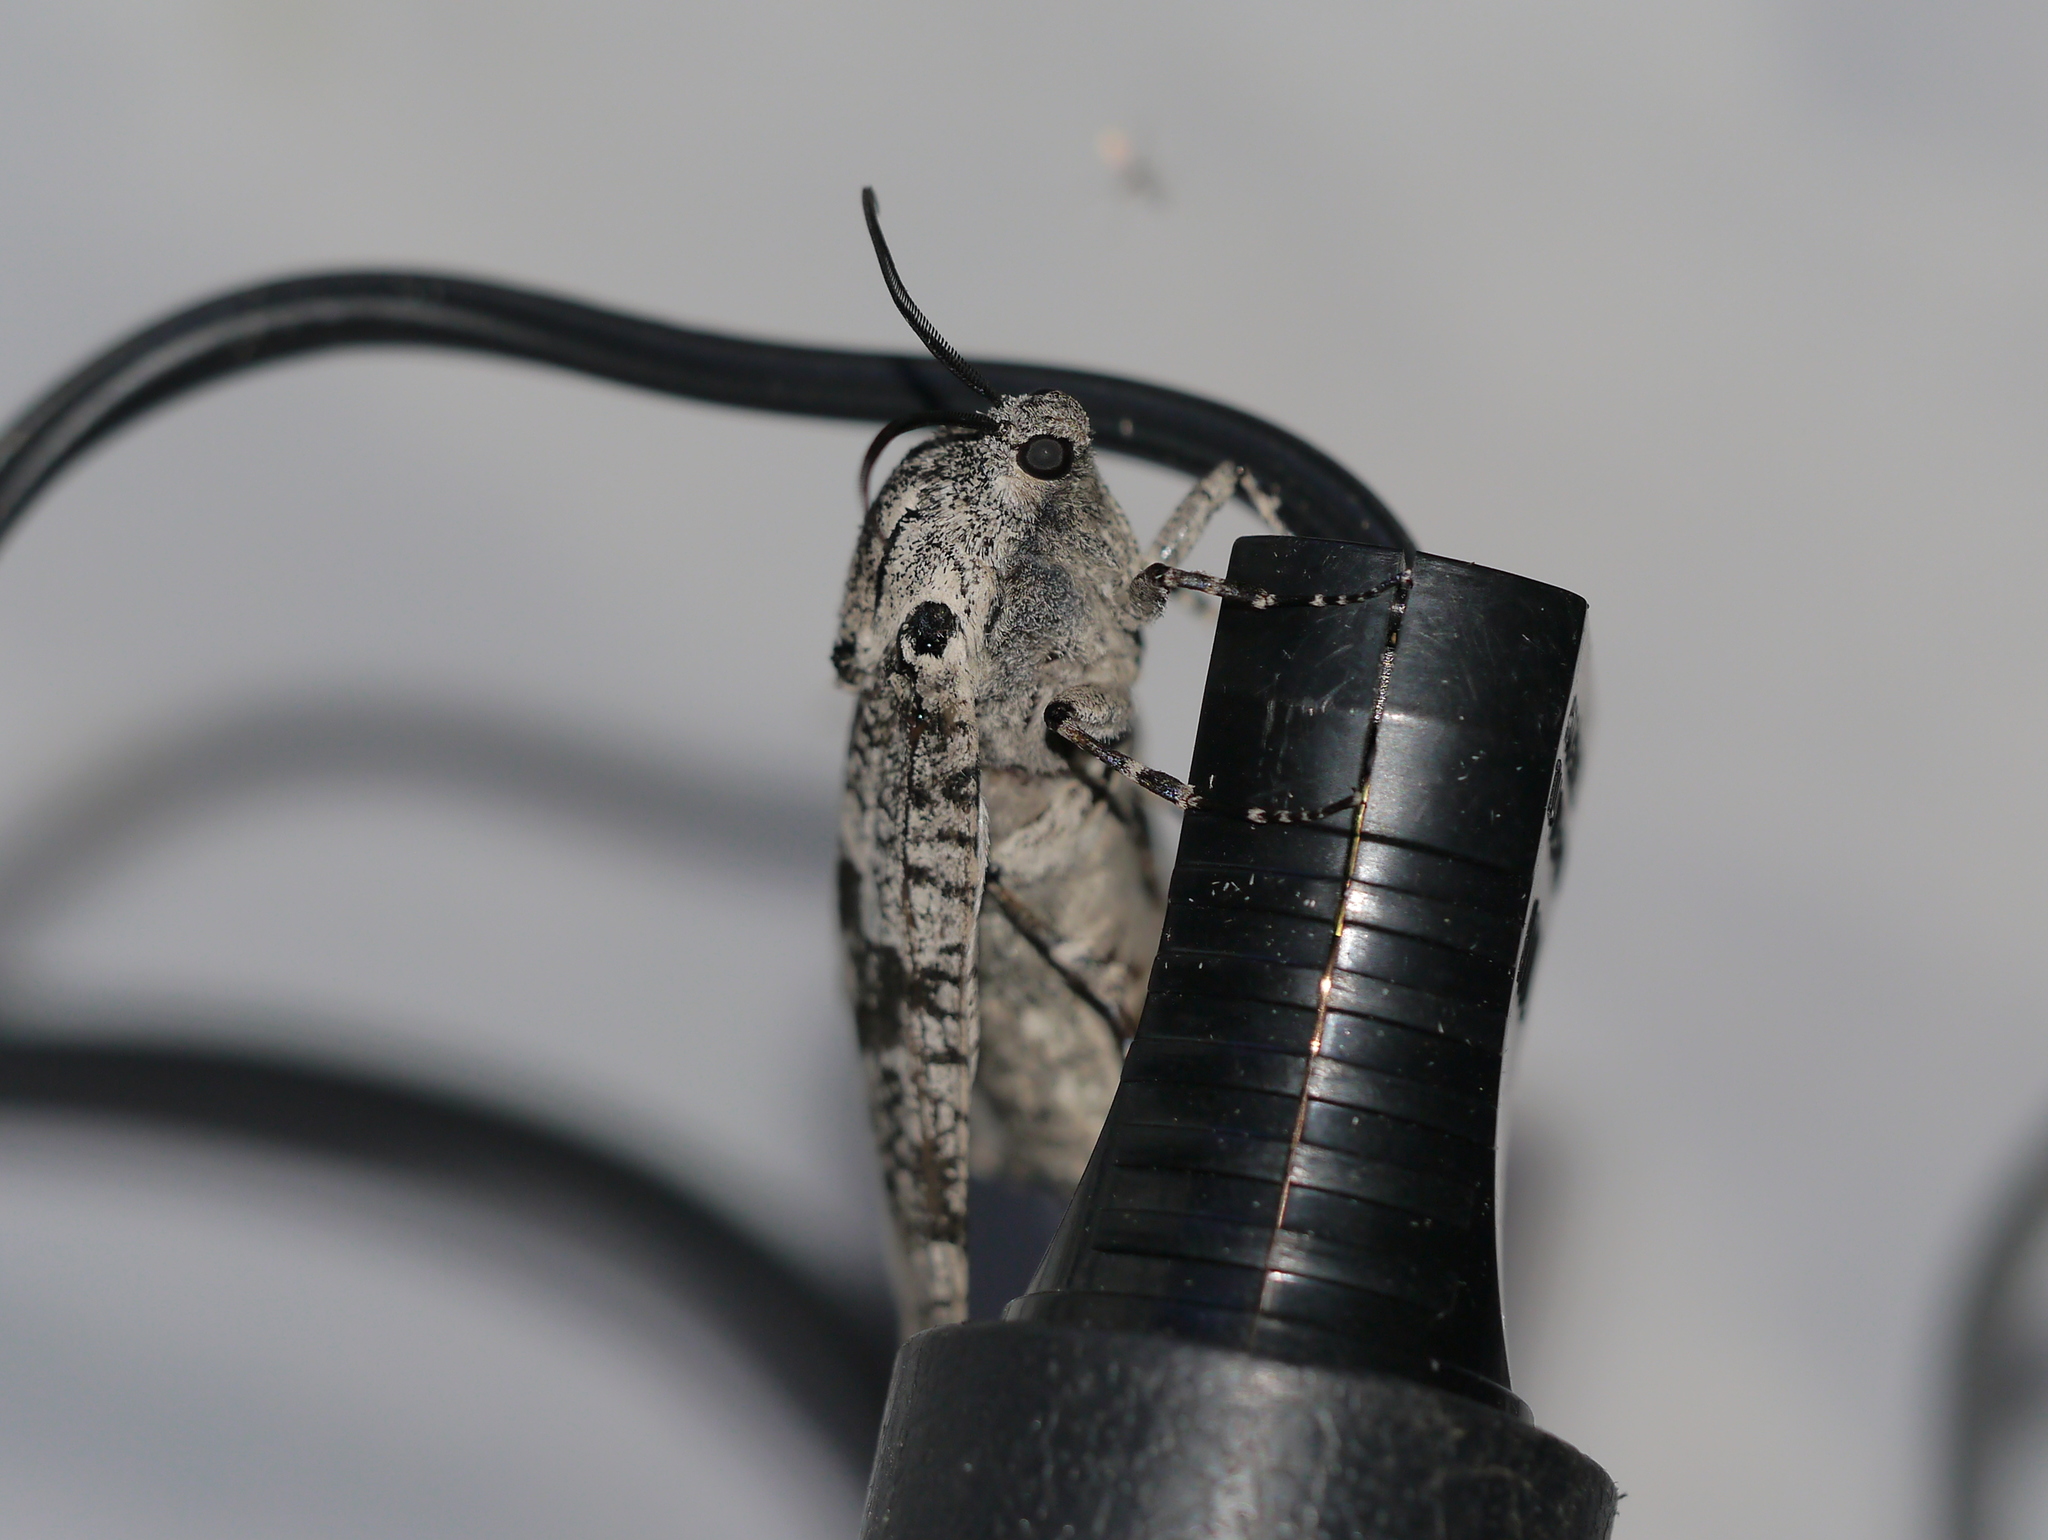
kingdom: Animalia
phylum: Arthropoda
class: Insecta
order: Lepidoptera
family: Cossidae
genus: Prionoxystus
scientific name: Prionoxystus robiniae
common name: Carpenterworm
